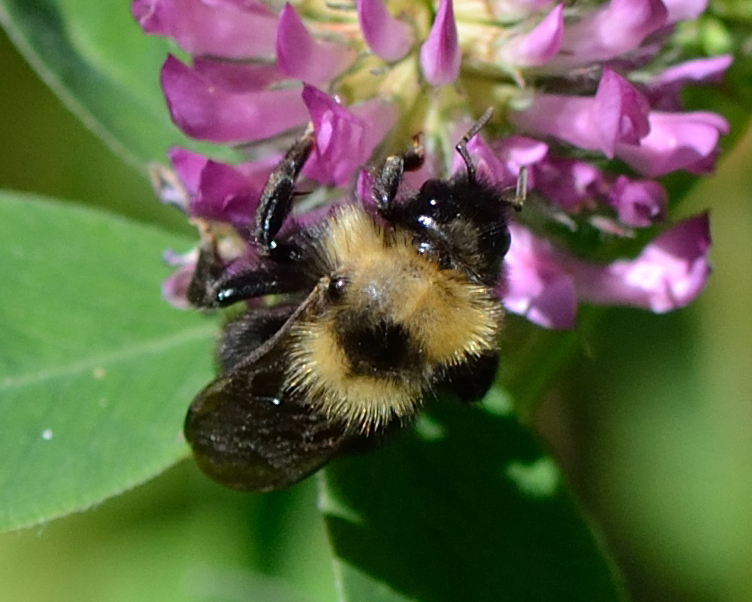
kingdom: Animalia
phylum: Arthropoda
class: Insecta
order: Hymenoptera
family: Apidae
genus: Bombus
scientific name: Bombus campestris
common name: Field cuckoo-bee
